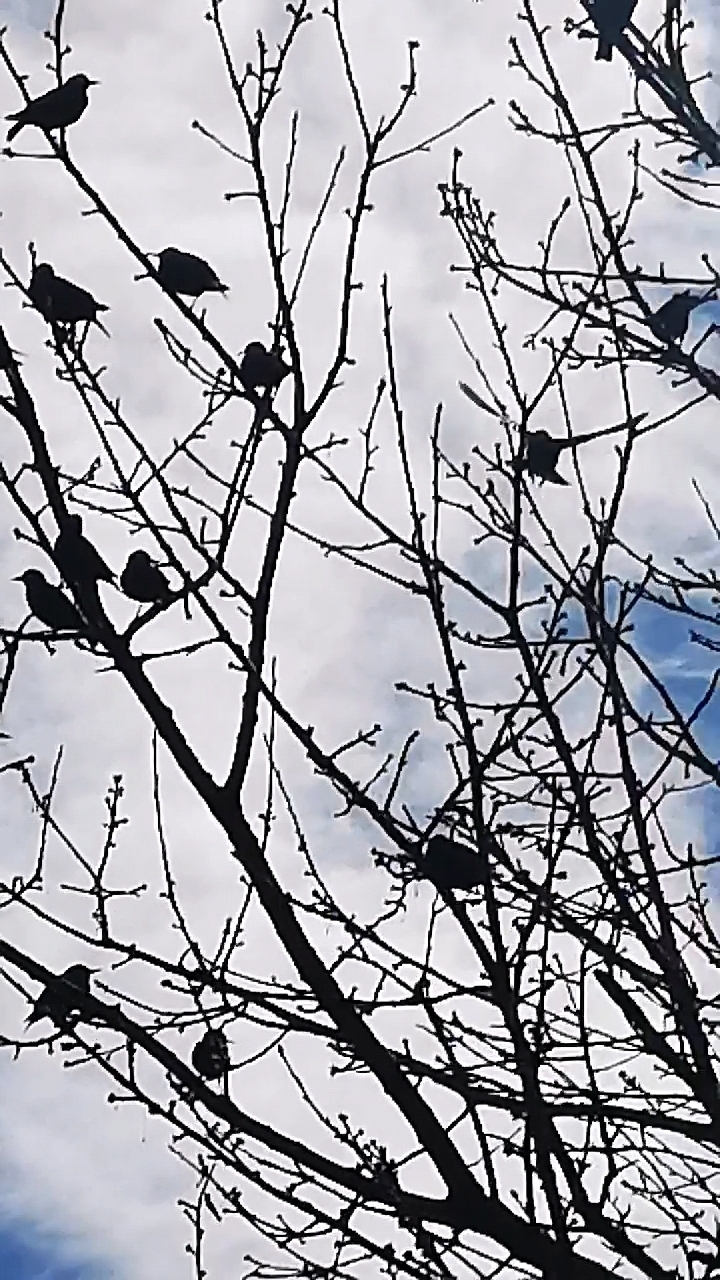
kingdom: Animalia
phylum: Chordata
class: Aves
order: Passeriformes
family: Sturnidae
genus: Sturnus
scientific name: Sturnus vulgaris
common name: Common starling
